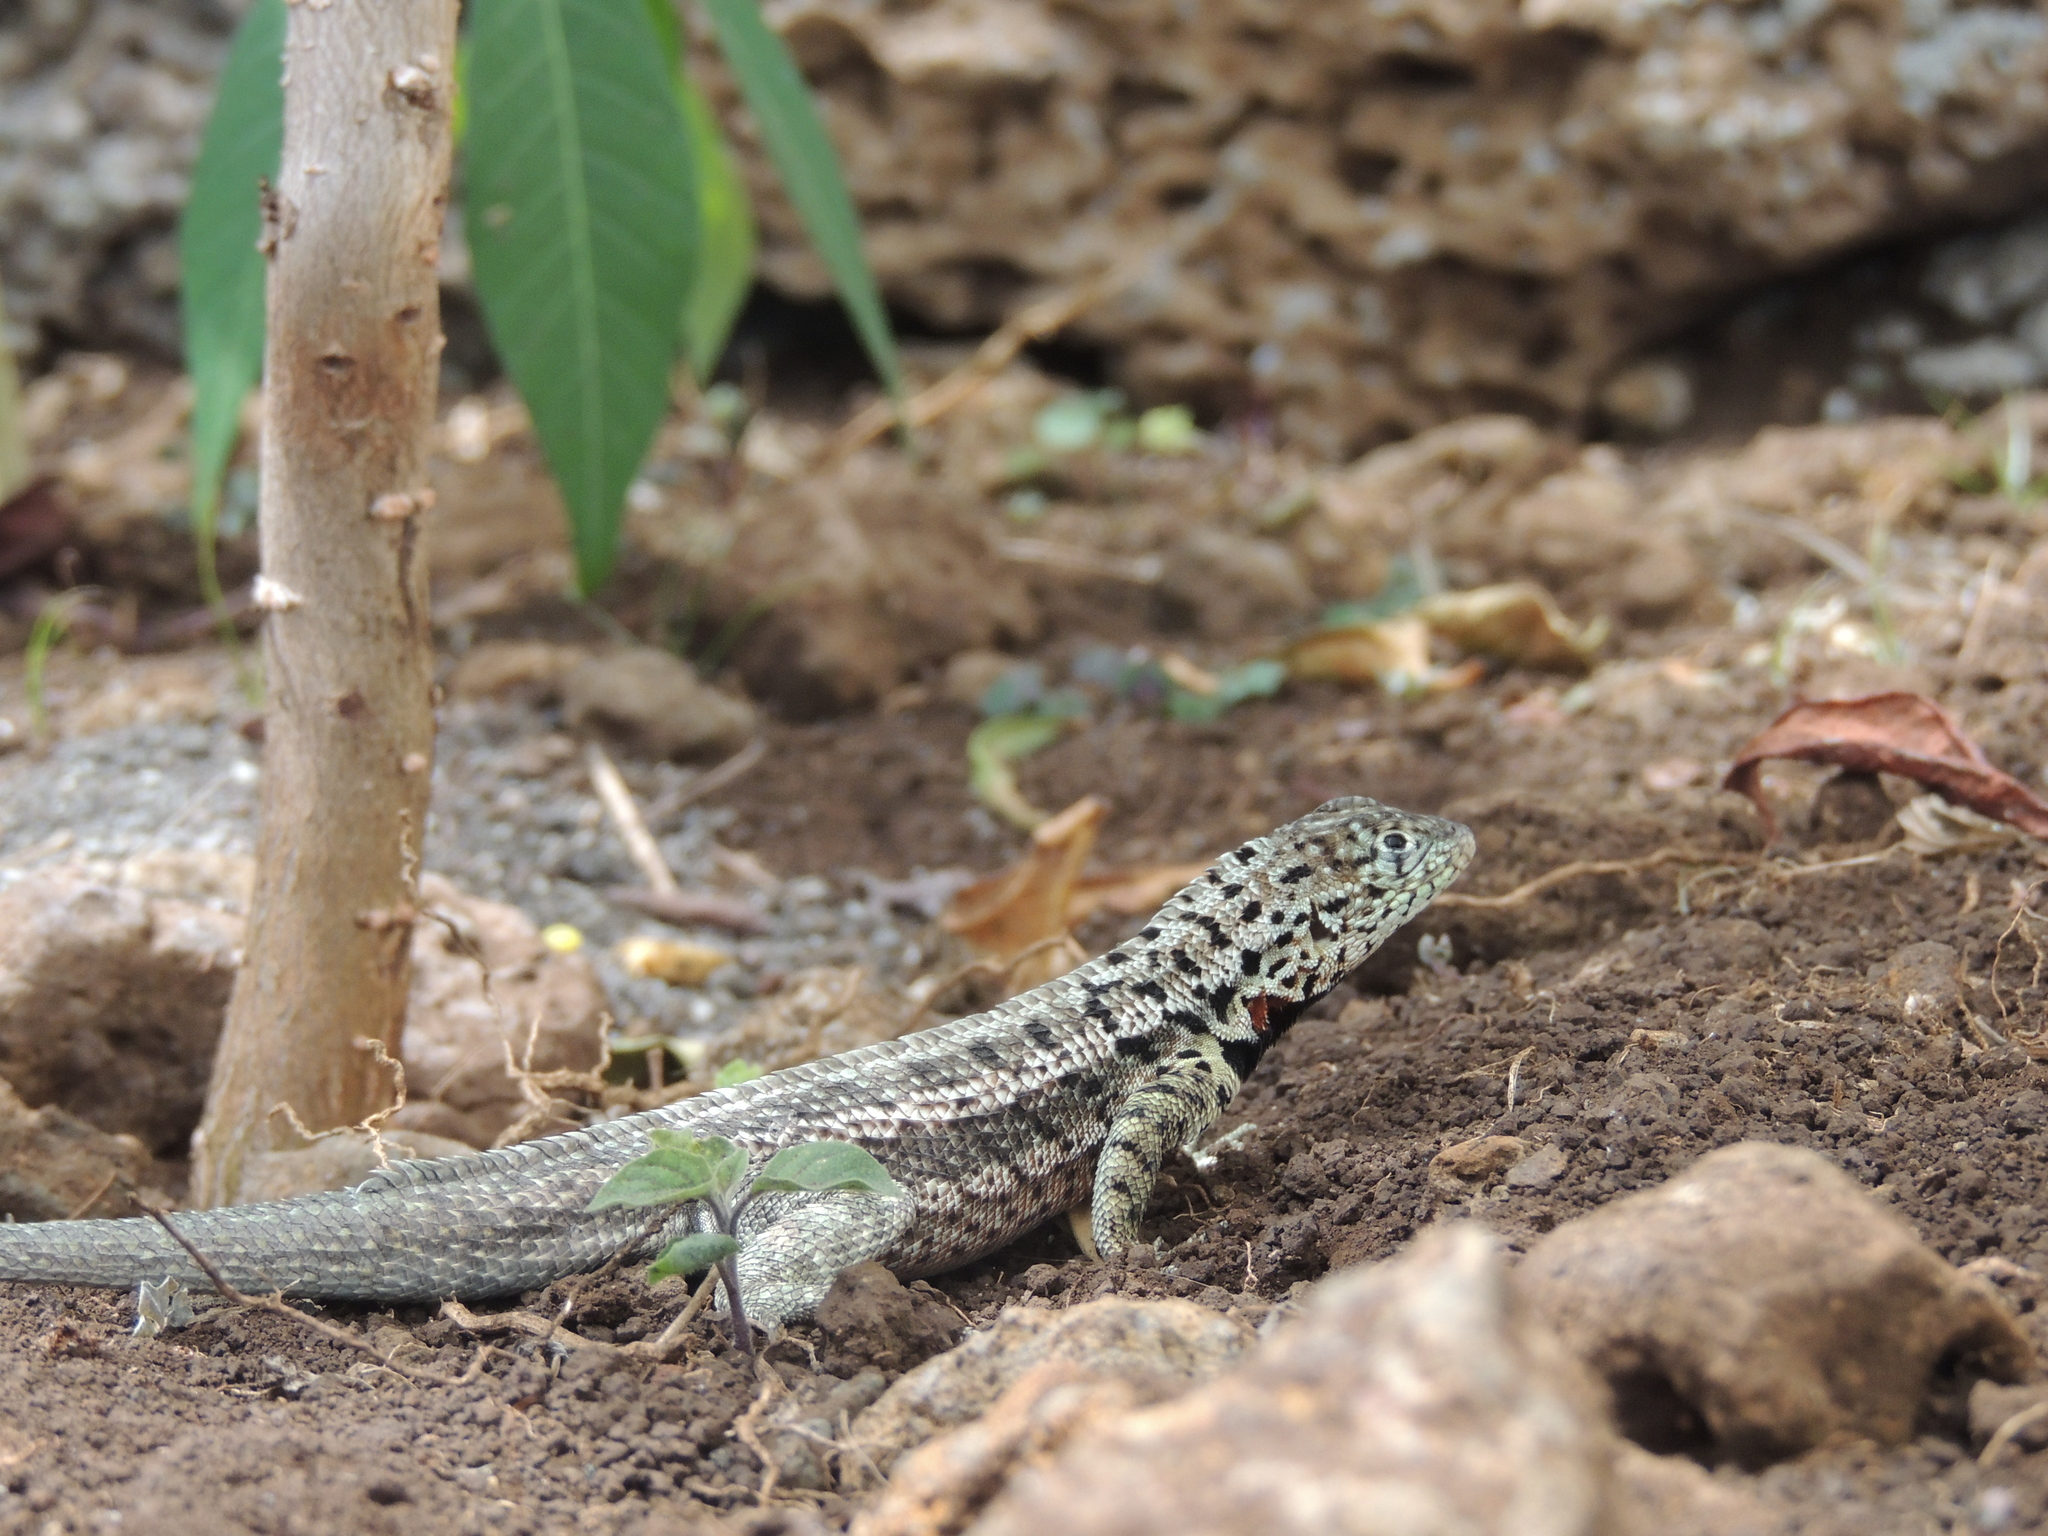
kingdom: Animalia
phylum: Chordata
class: Squamata
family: Tropiduridae
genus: Microlophus
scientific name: Microlophus indefatigabilis
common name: Galapagos lava lizard
